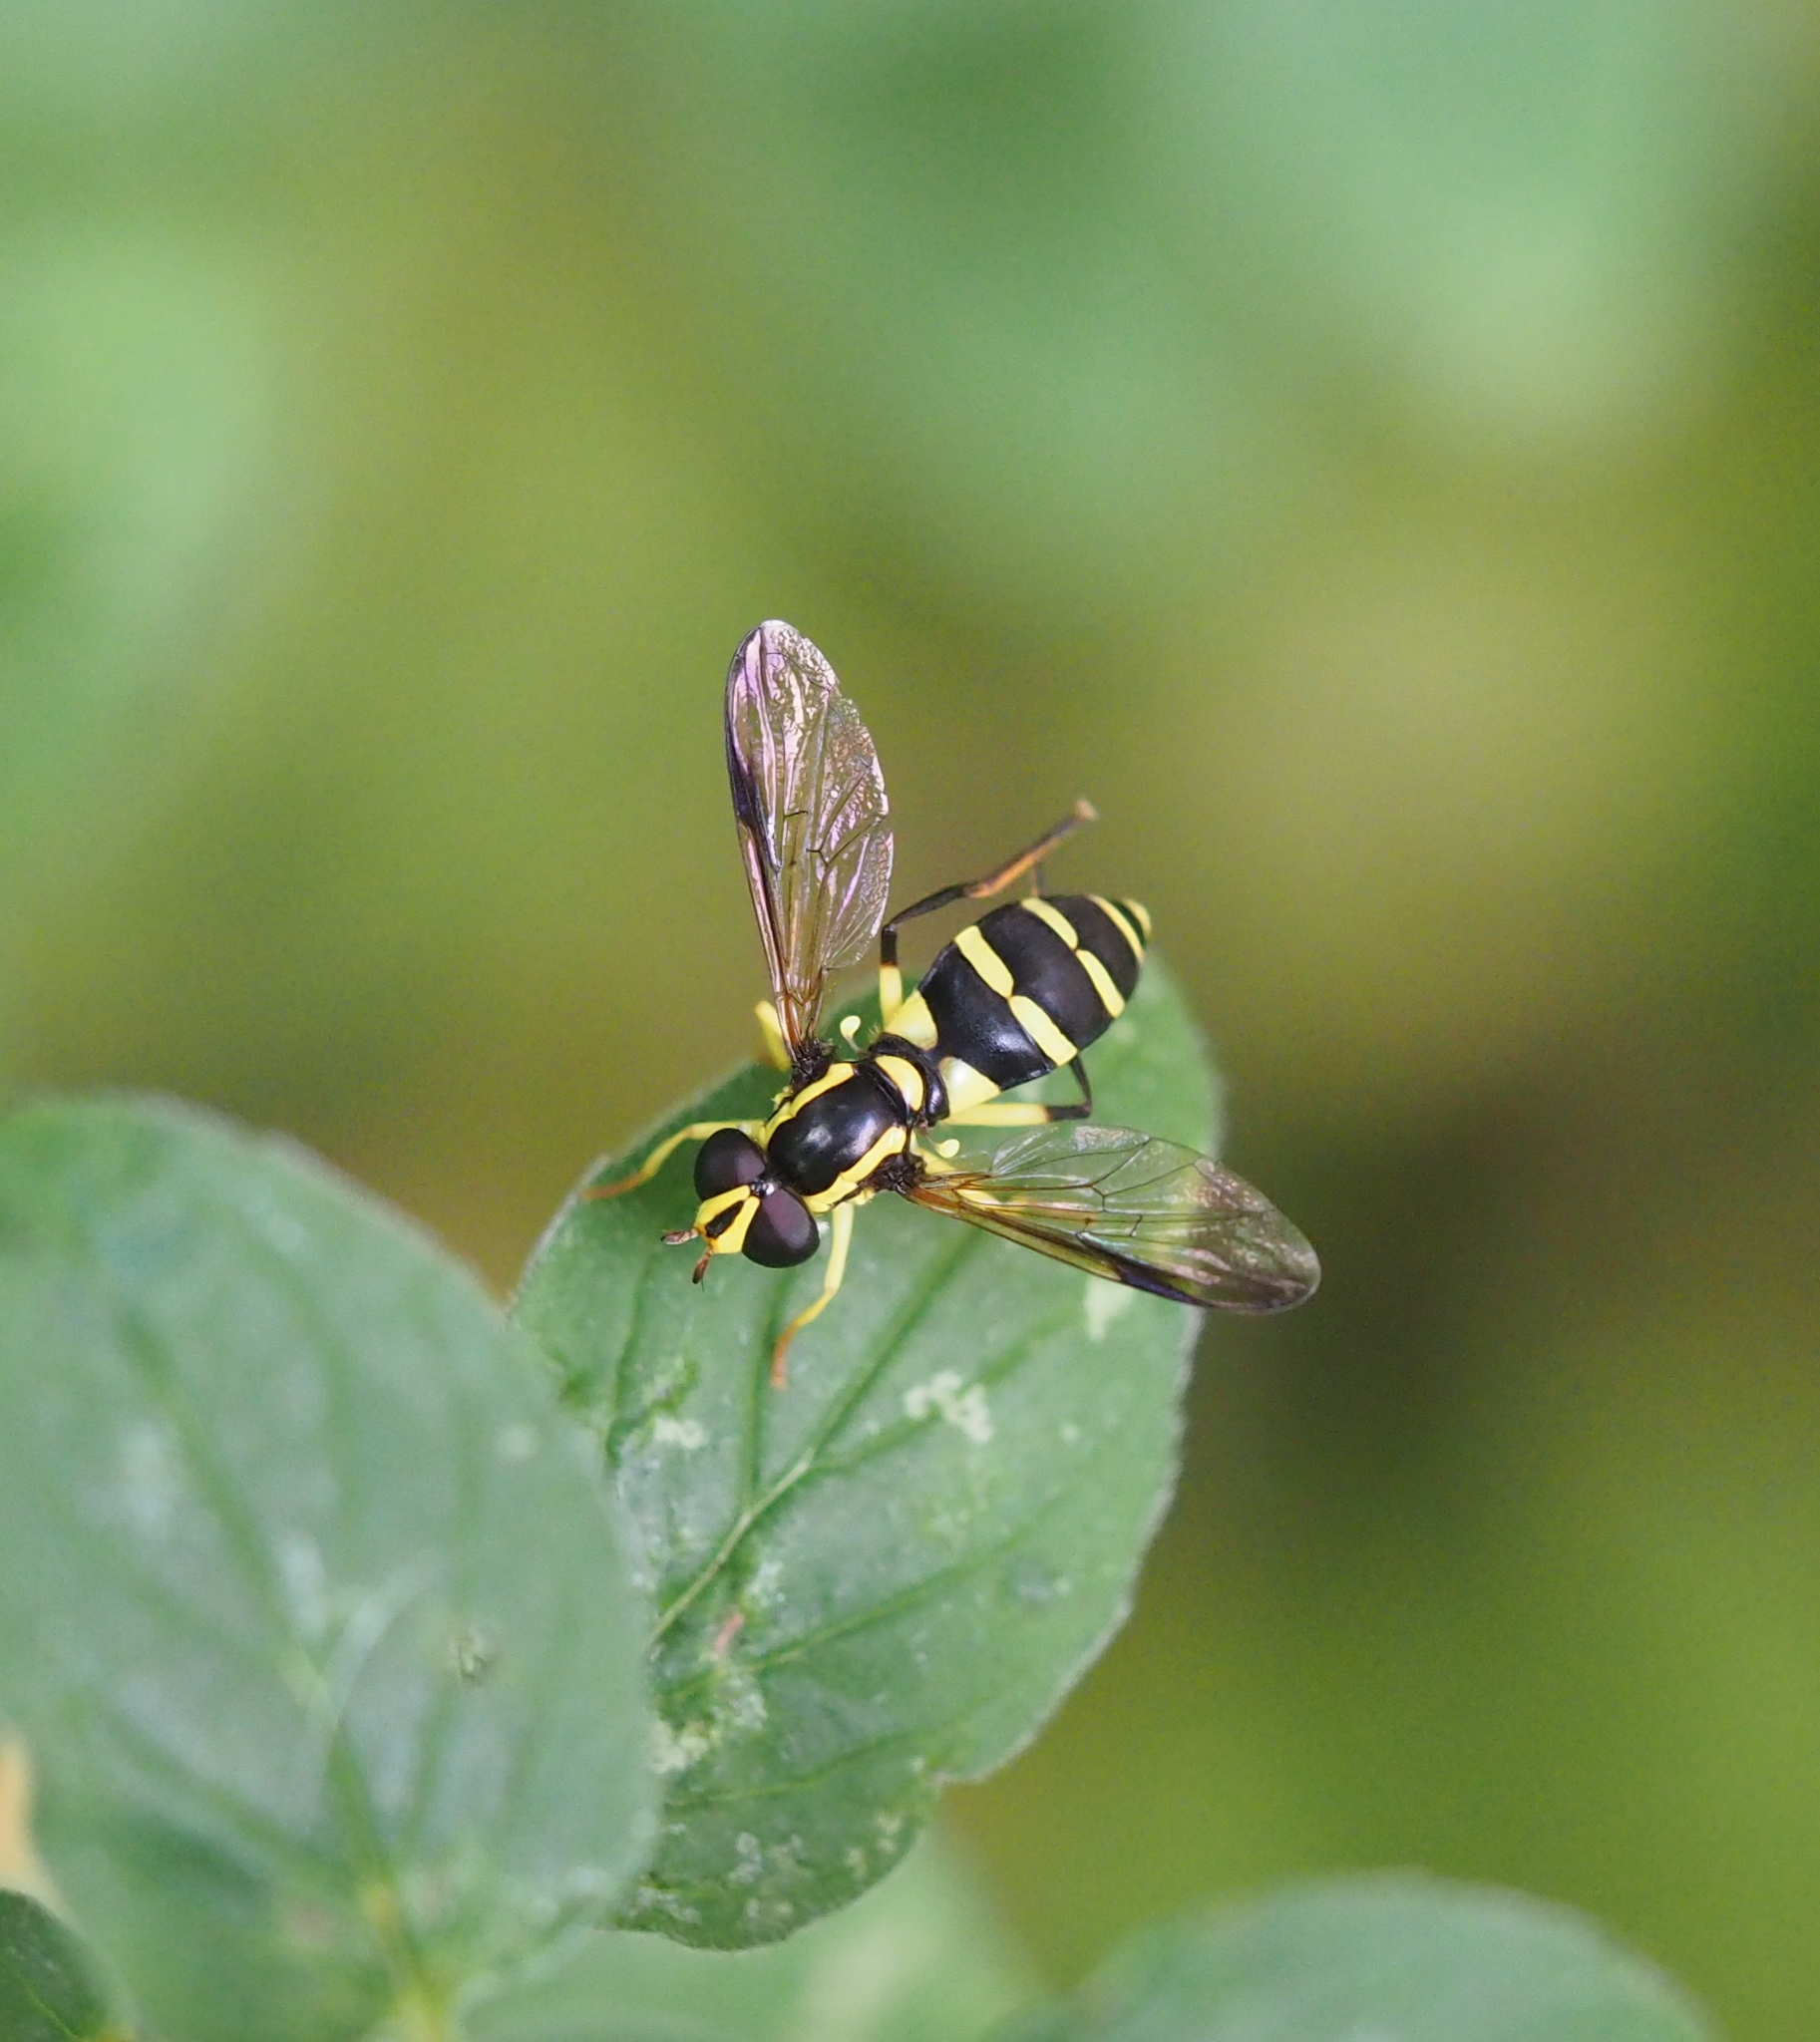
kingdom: Animalia
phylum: Arthropoda
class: Insecta
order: Diptera
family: Syrphidae
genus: Philhelius
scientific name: Philhelius dives
